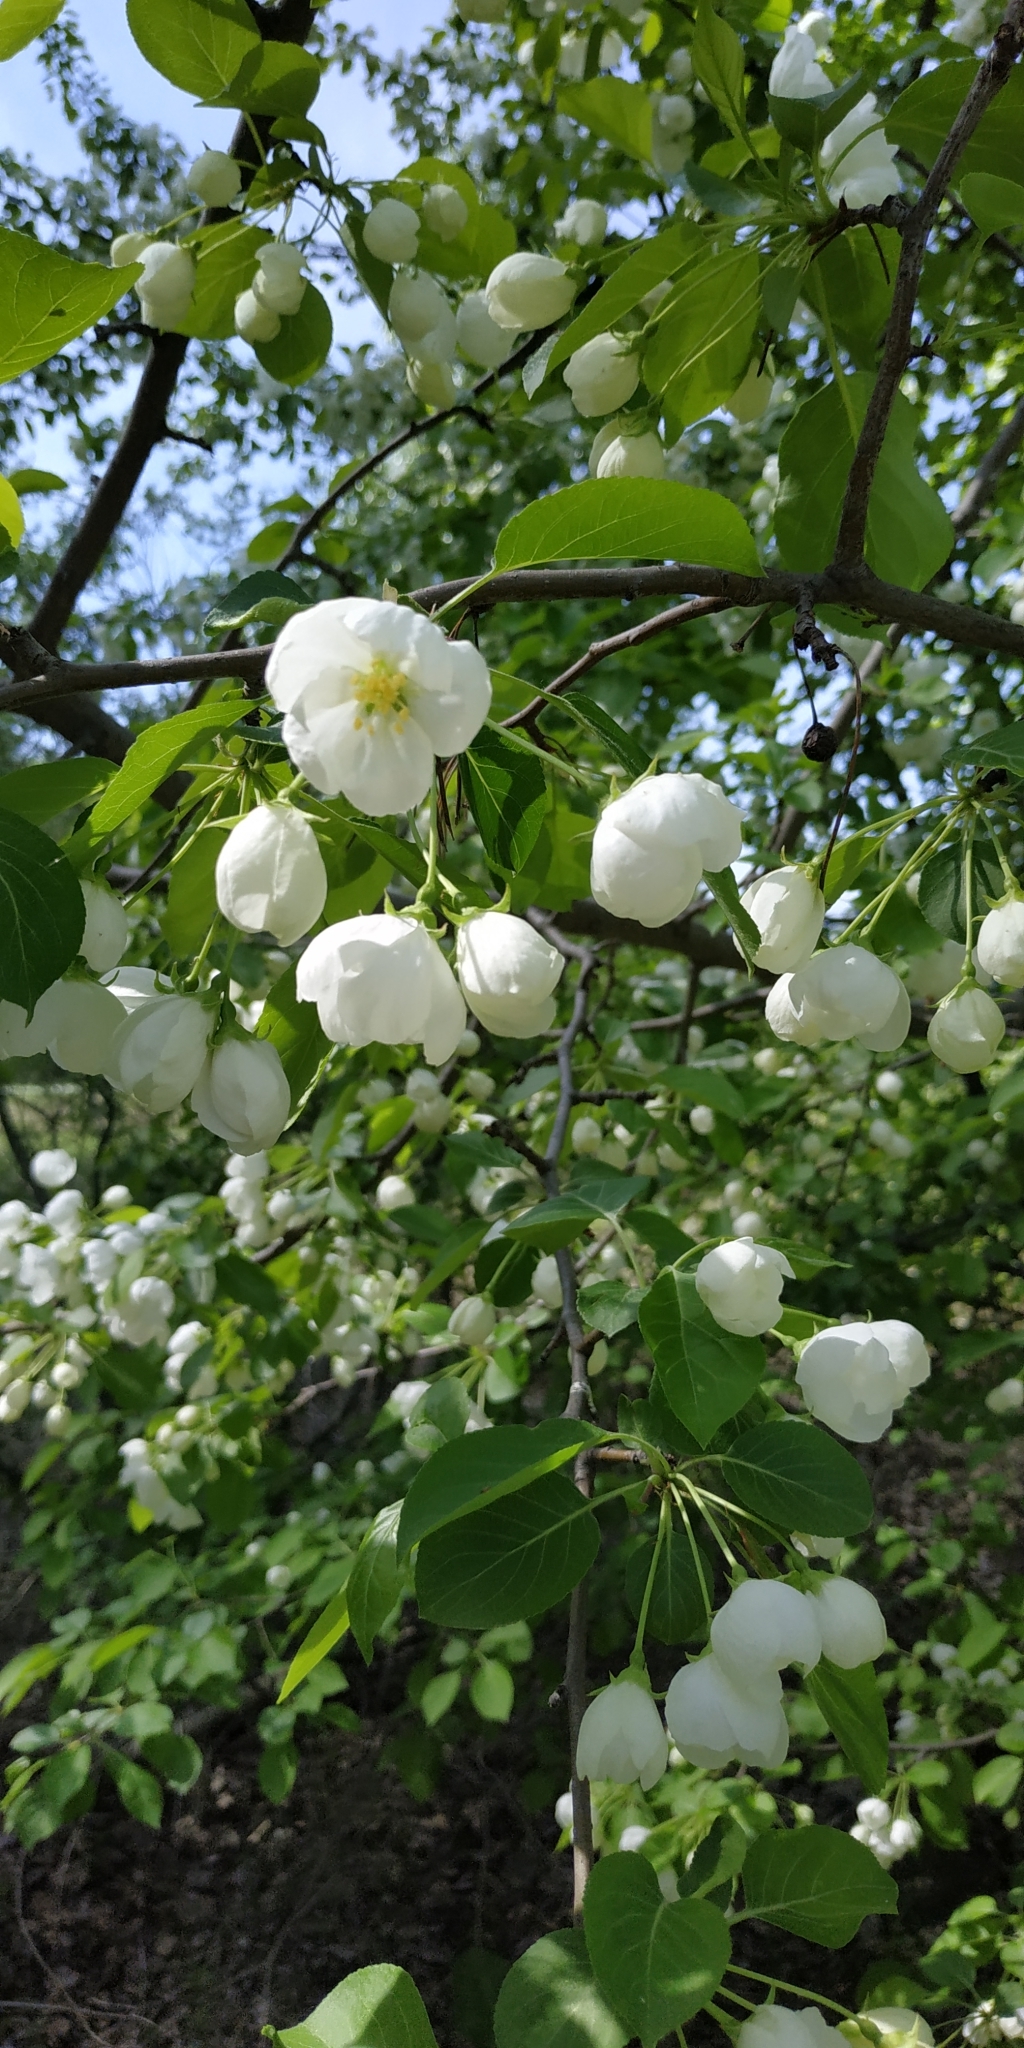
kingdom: Plantae
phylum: Tracheophyta
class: Magnoliopsida
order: Rosales
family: Rosaceae
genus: Malus
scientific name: Malus baccata
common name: Siberian crab
